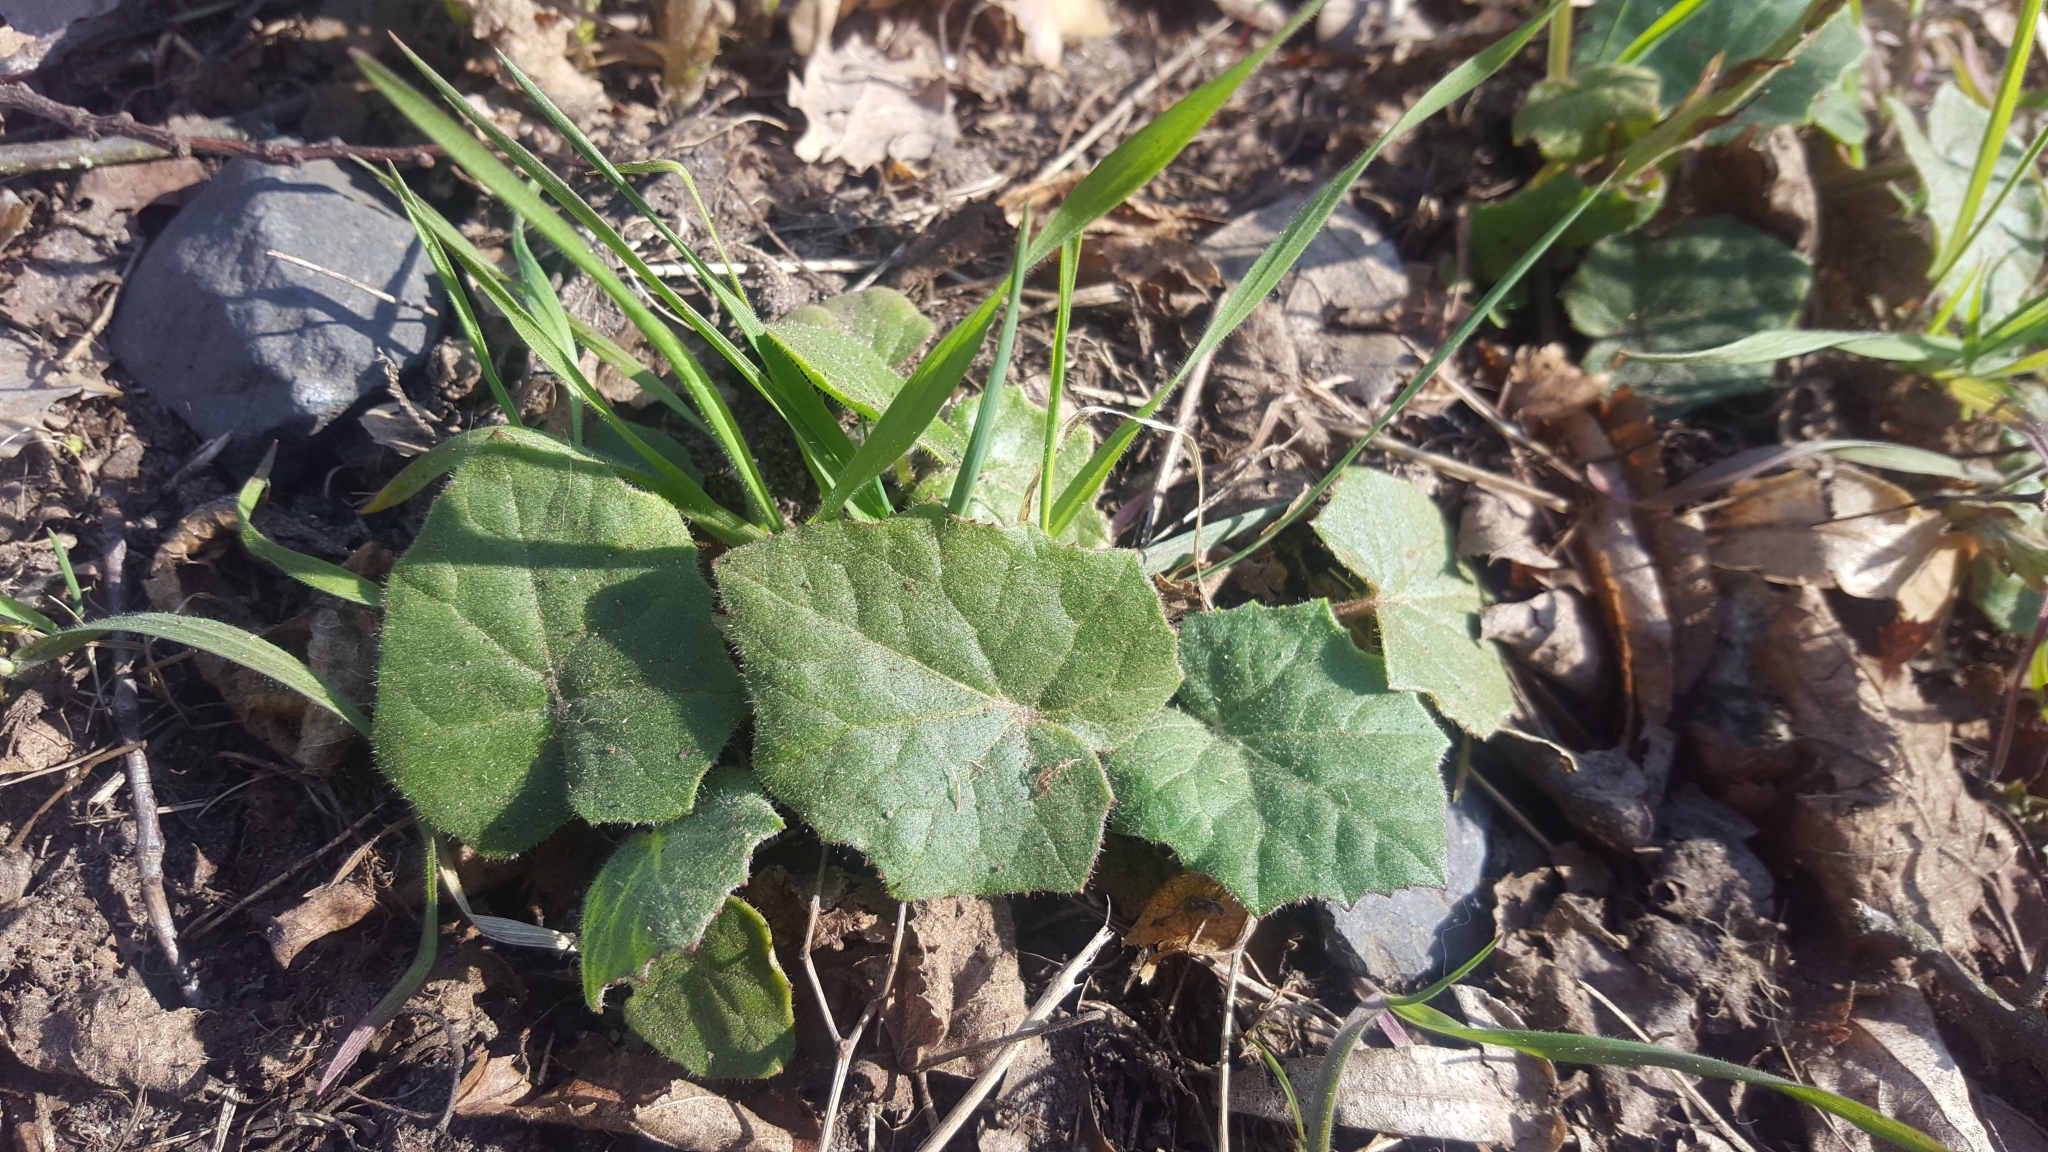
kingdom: Plantae
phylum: Tracheophyta
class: Magnoliopsida
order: Asterales
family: Asteraceae
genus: Tussilago
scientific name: Tussilago farfara
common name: Coltsfoot
